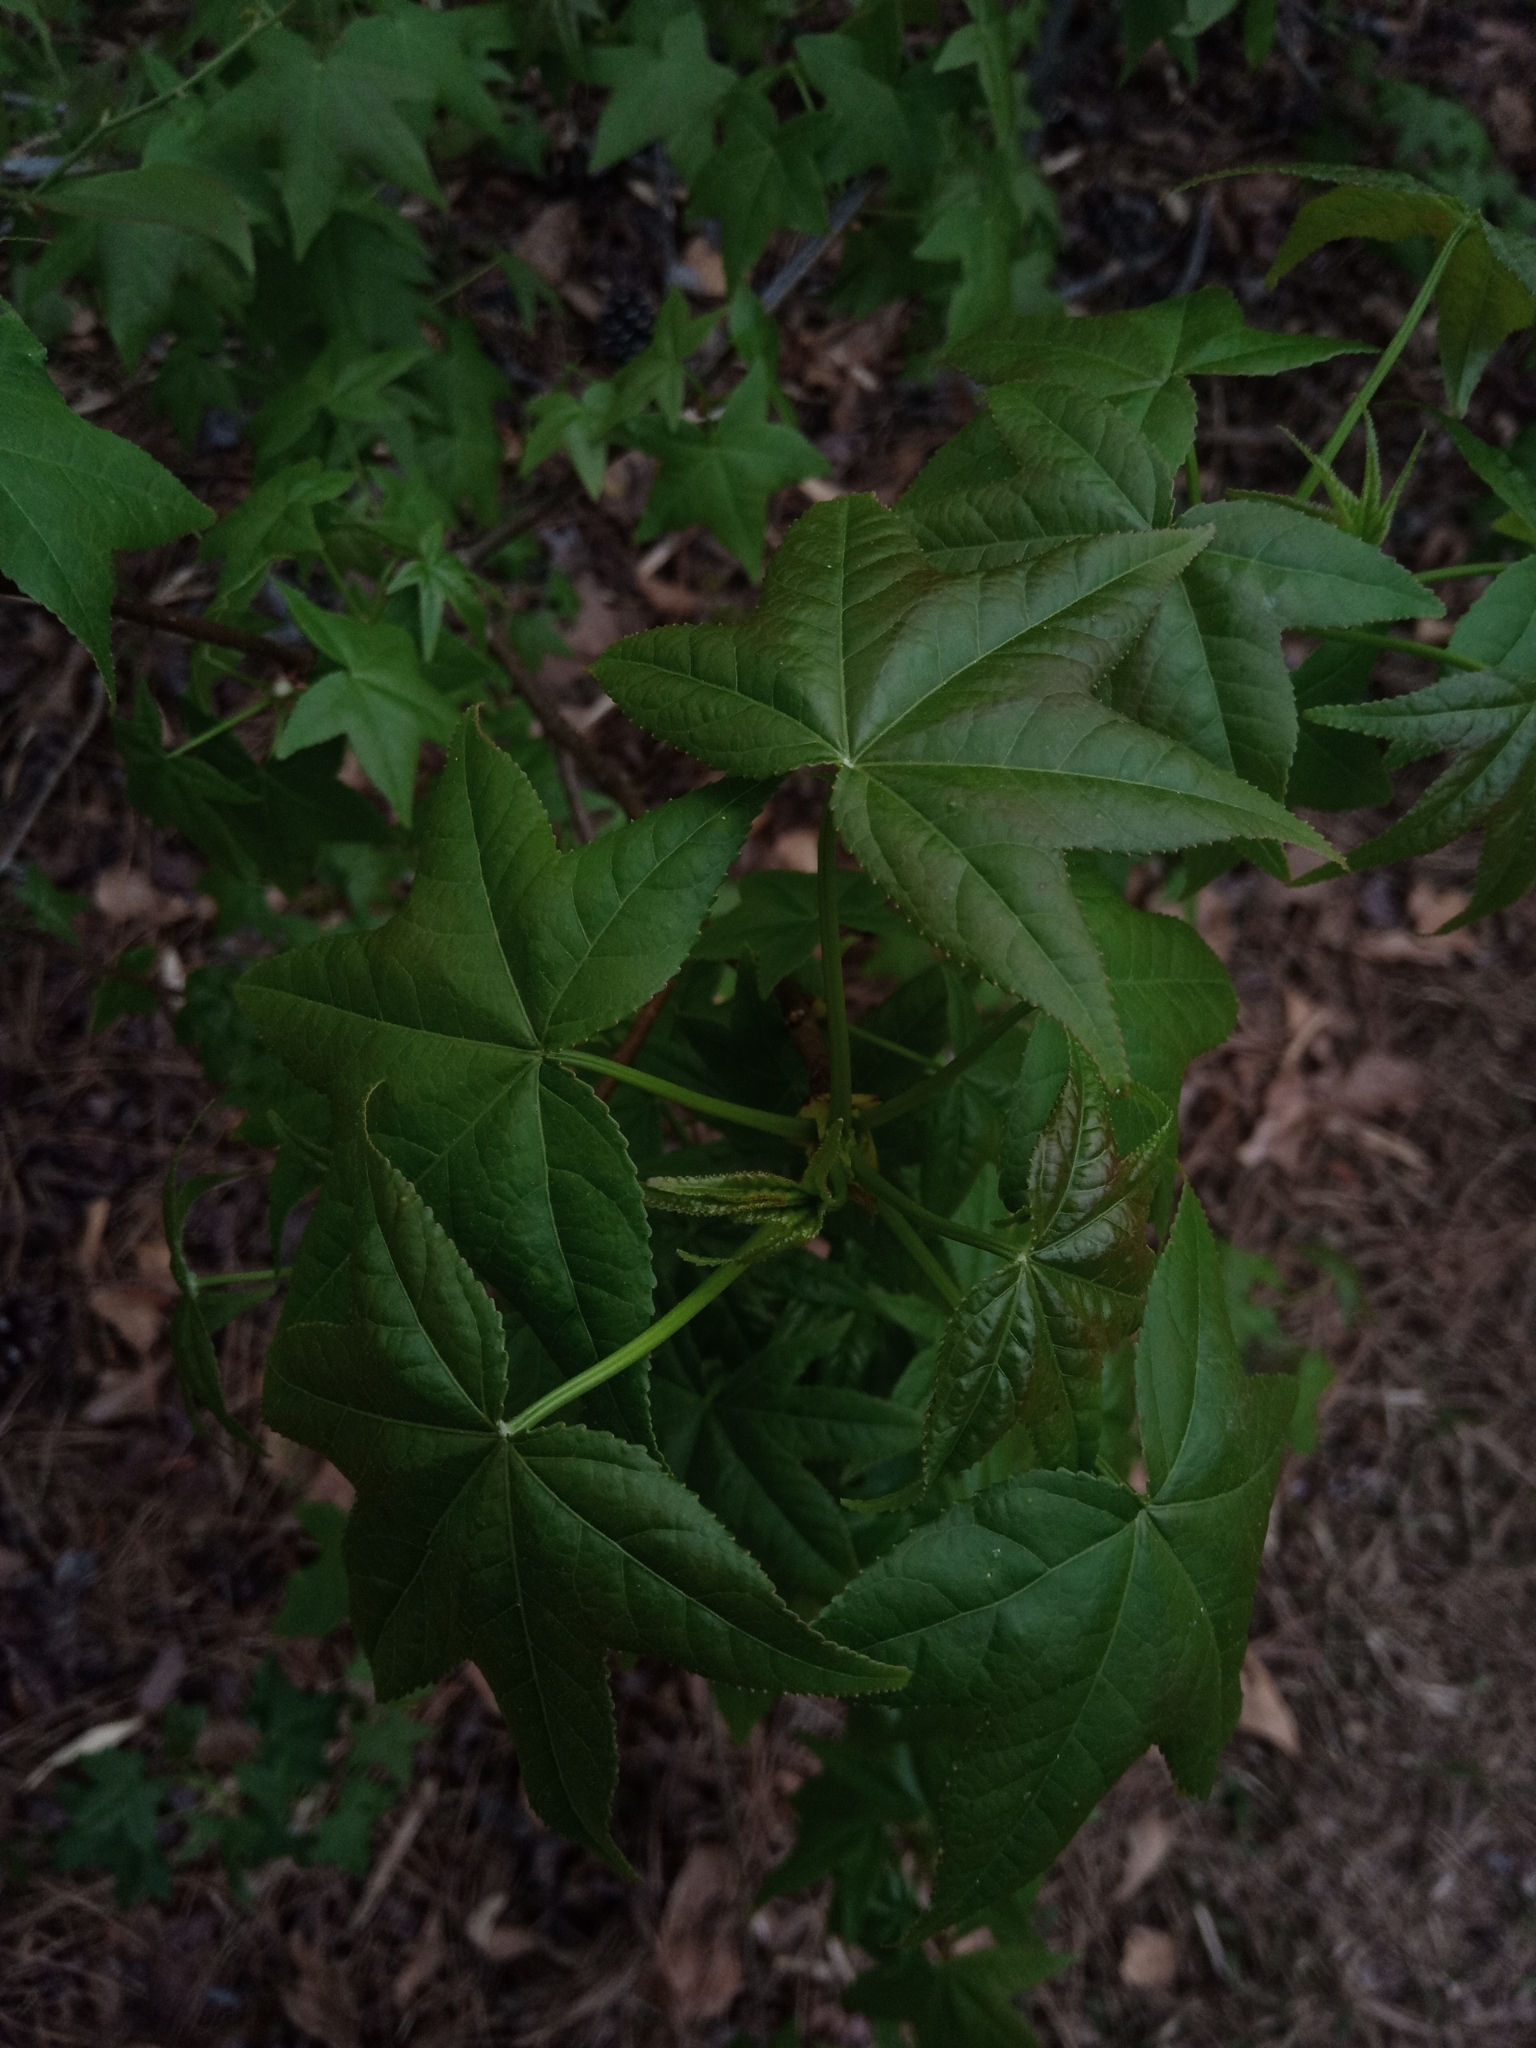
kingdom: Plantae
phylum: Tracheophyta
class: Magnoliopsida
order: Saxifragales
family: Altingiaceae
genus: Liquidambar
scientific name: Liquidambar styraciflua
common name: Sweet gum
